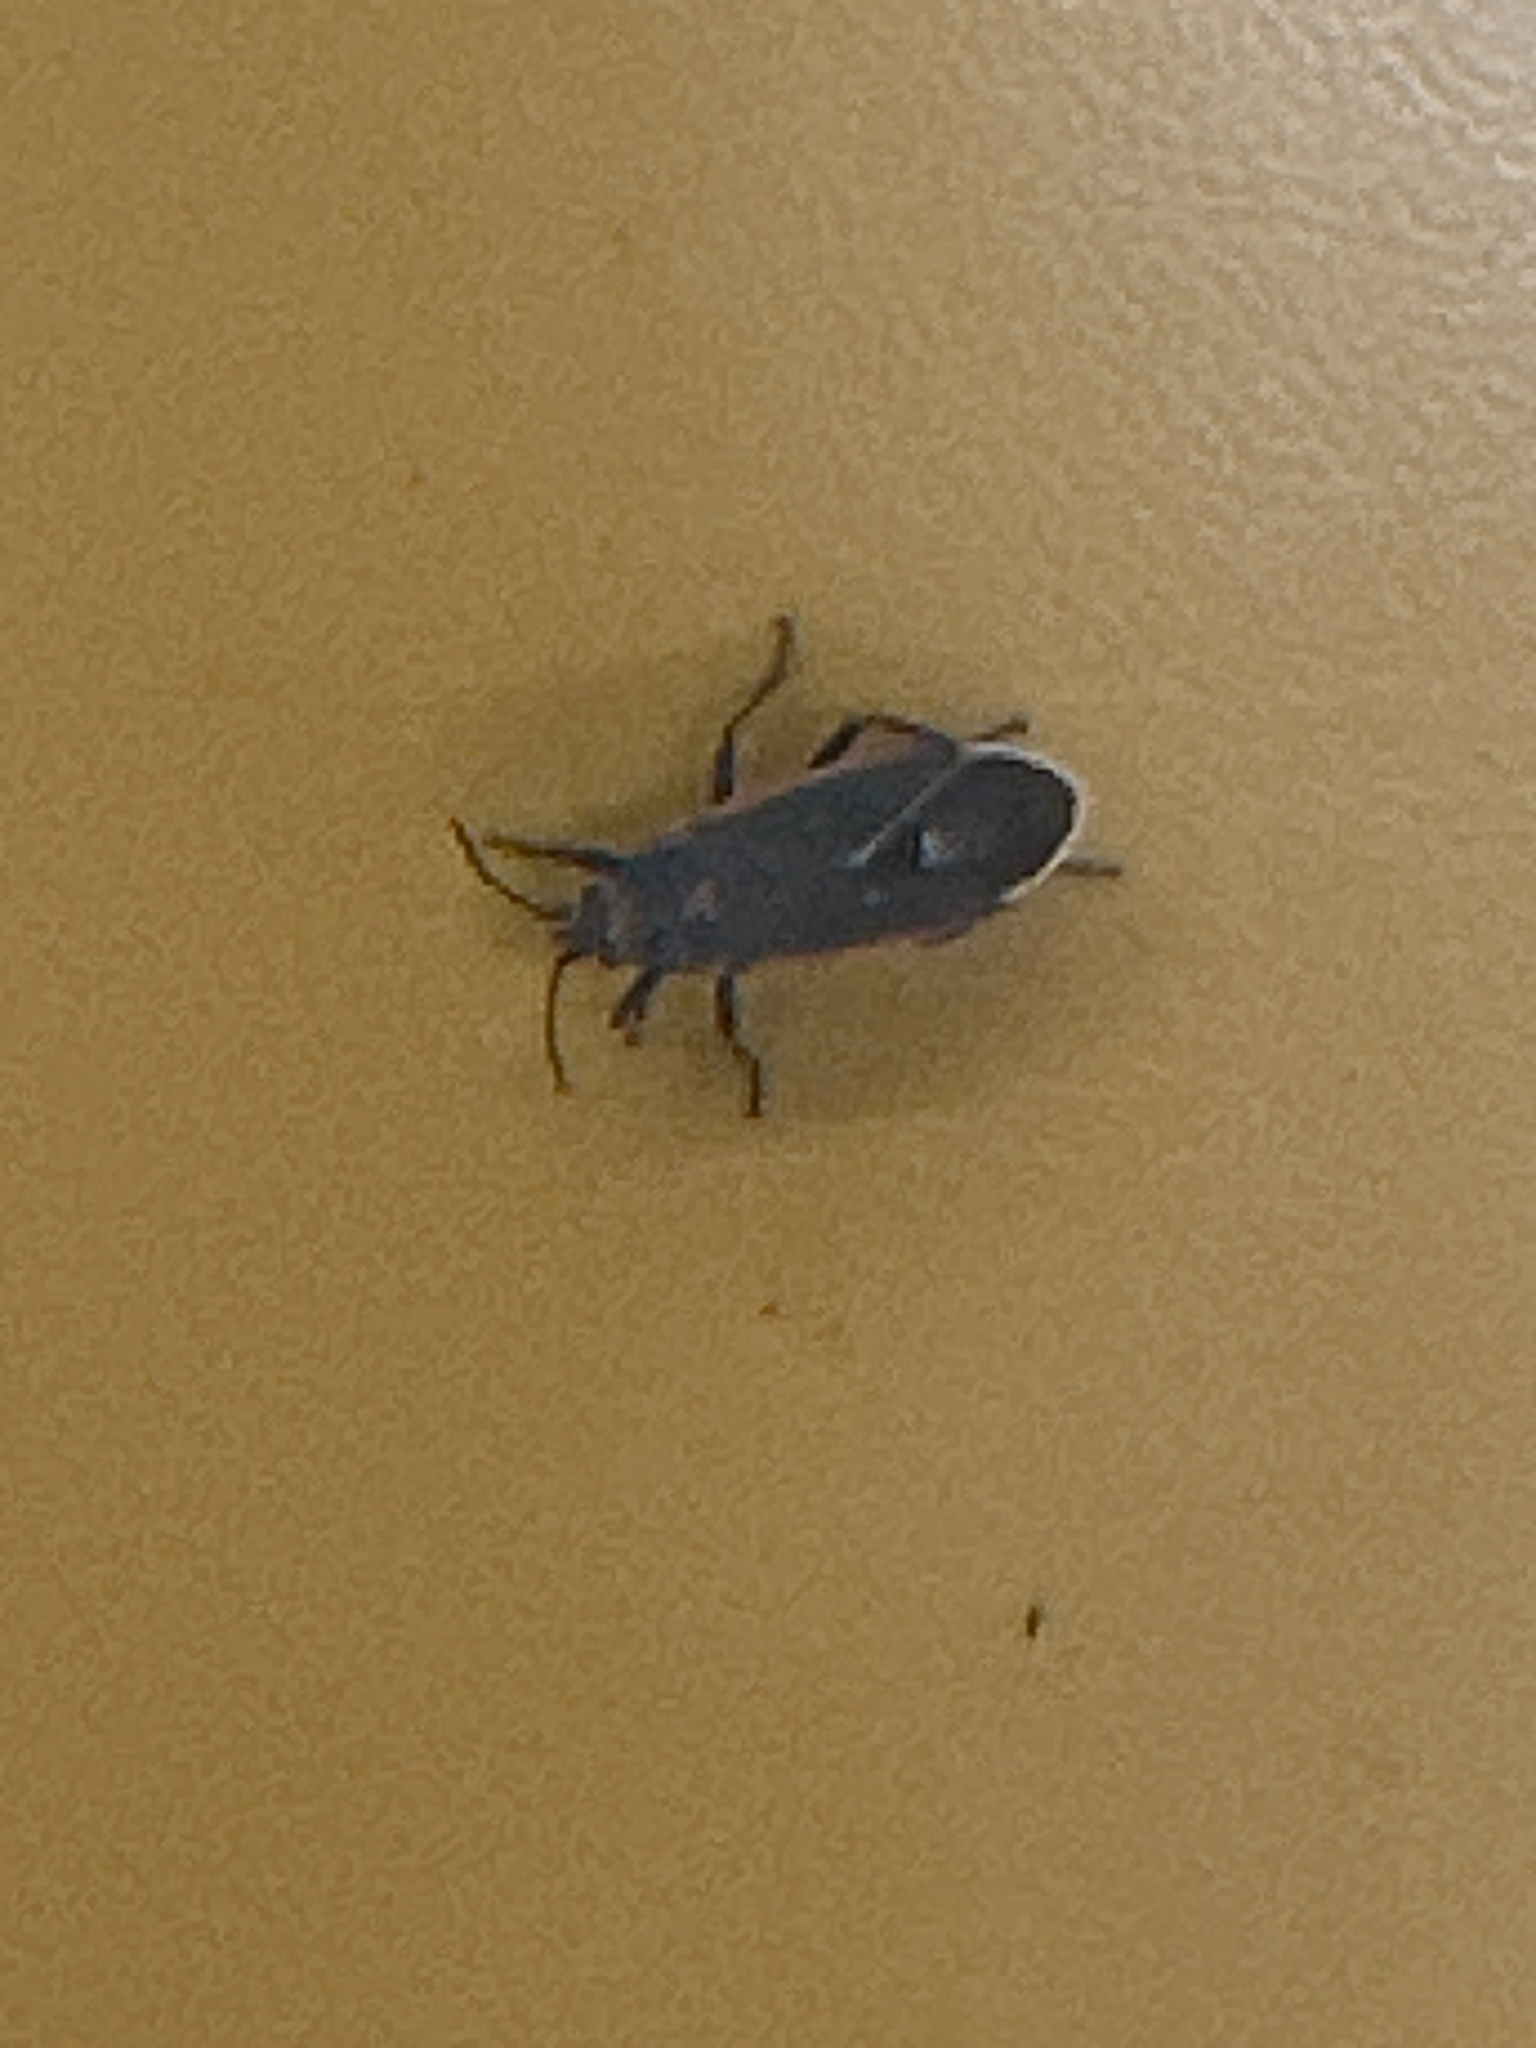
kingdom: Animalia
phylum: Arthropoda
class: Insecta
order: Hemiptera
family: Lygaeidae
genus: Melacoryphus
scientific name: Melacoryphus lateralis
